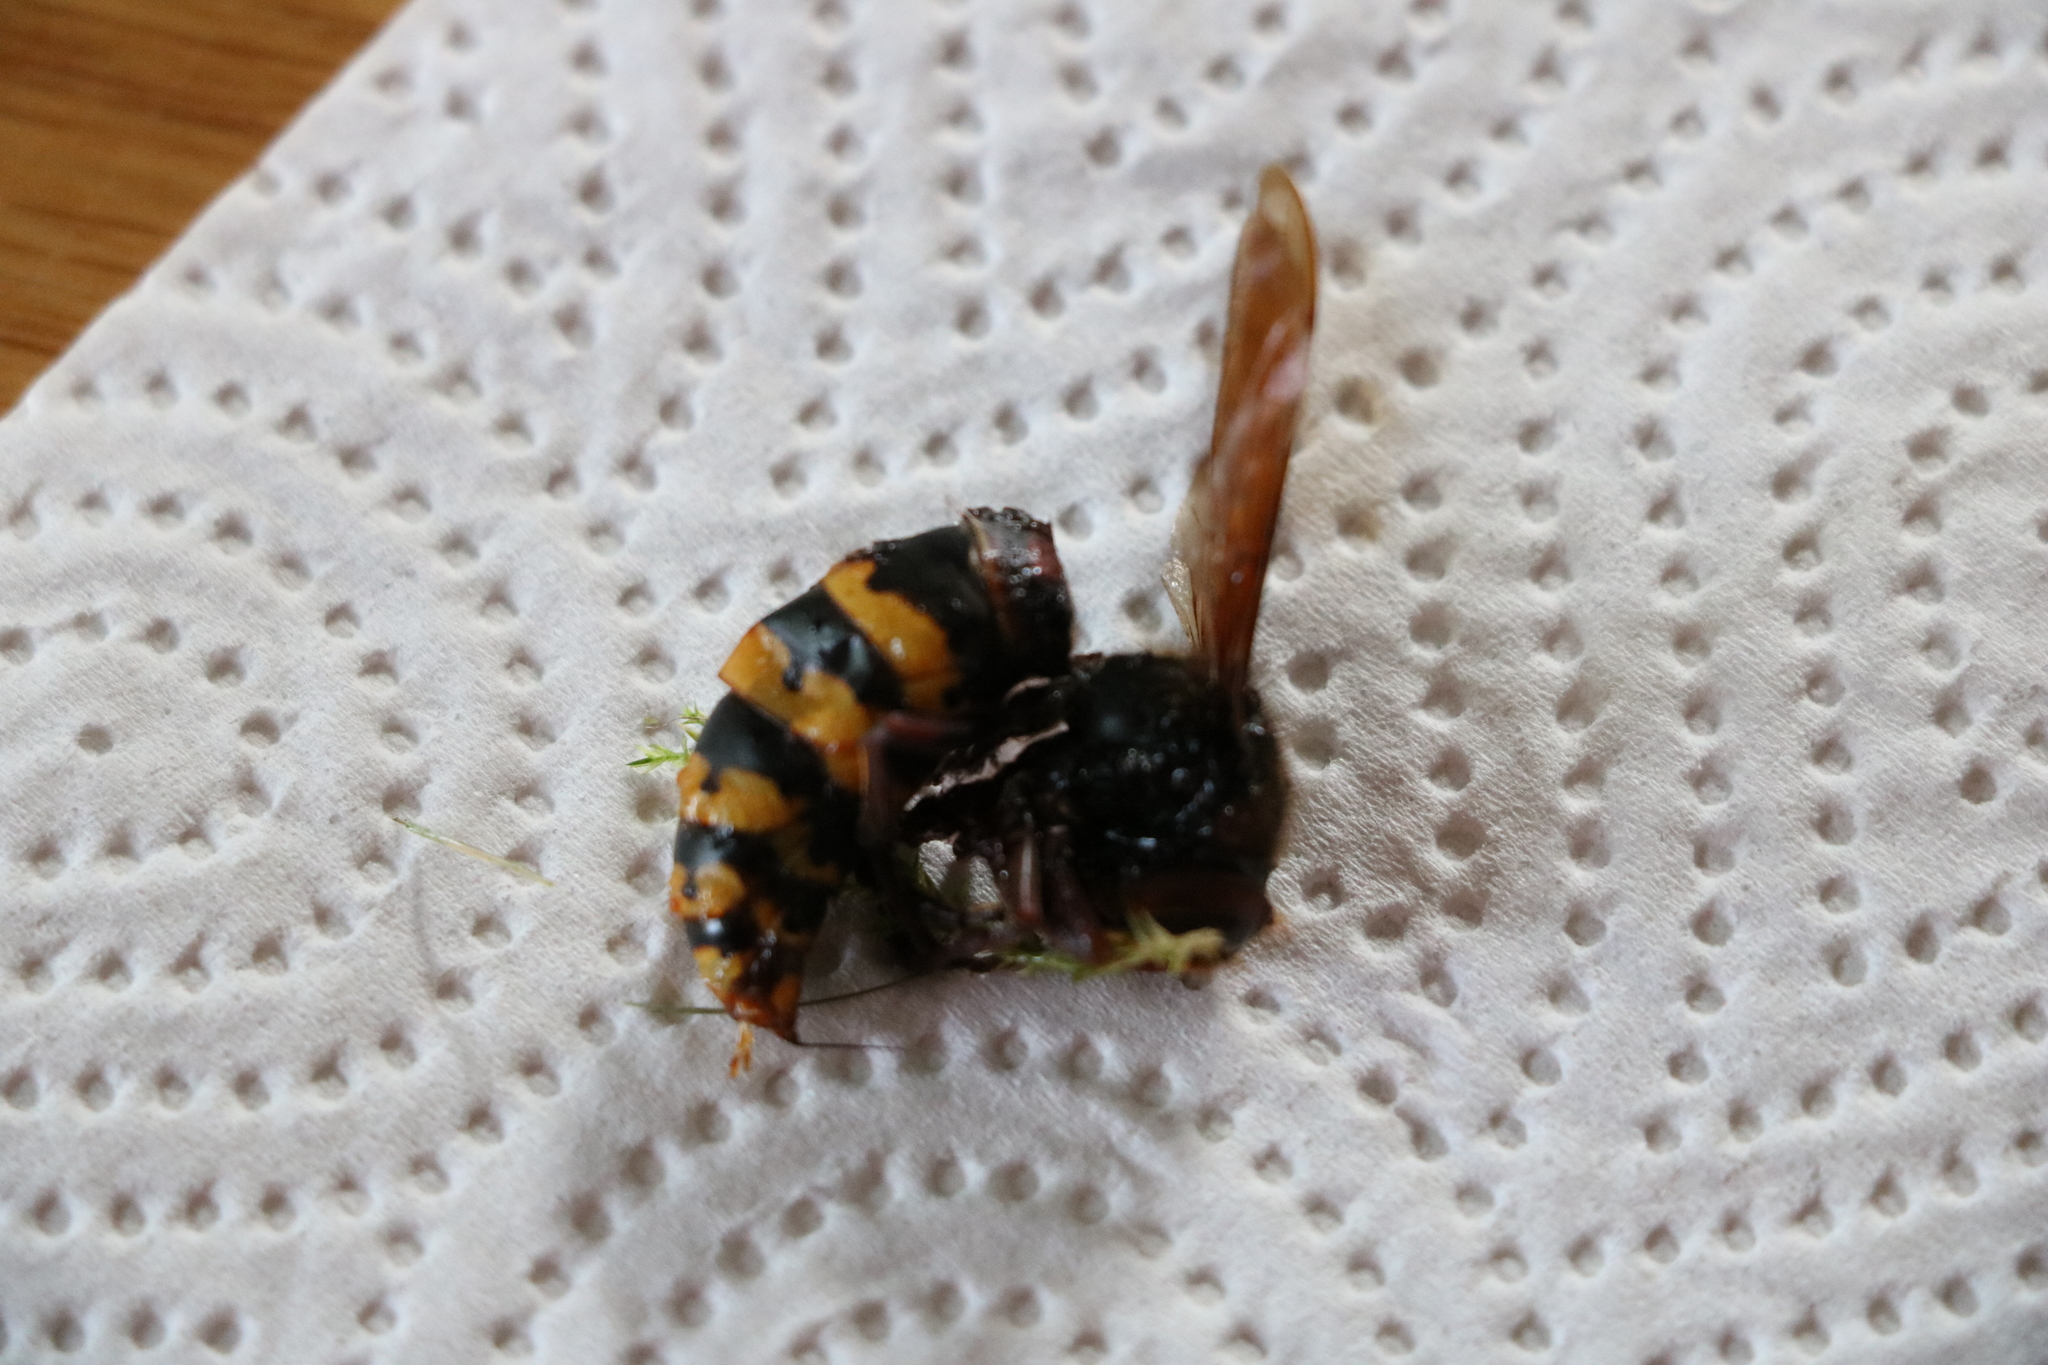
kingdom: Animalia
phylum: Arthropoda
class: Insecta
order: Hymenoptera
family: Vespidae
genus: Vespa
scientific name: Vespa crabro
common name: Hornet
